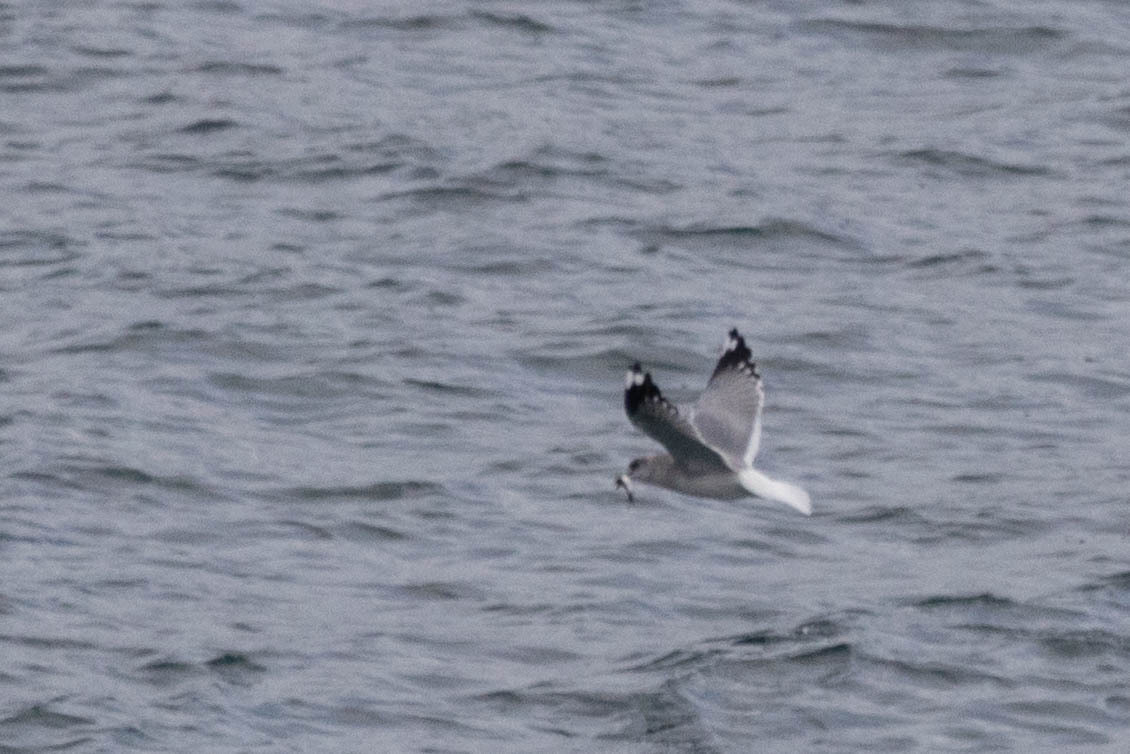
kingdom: Animalia
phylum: Chordata
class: Aves
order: Charadriiformes
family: Laridae
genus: Larus
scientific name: Larus brachyrhynchus
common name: Short-billed gull
